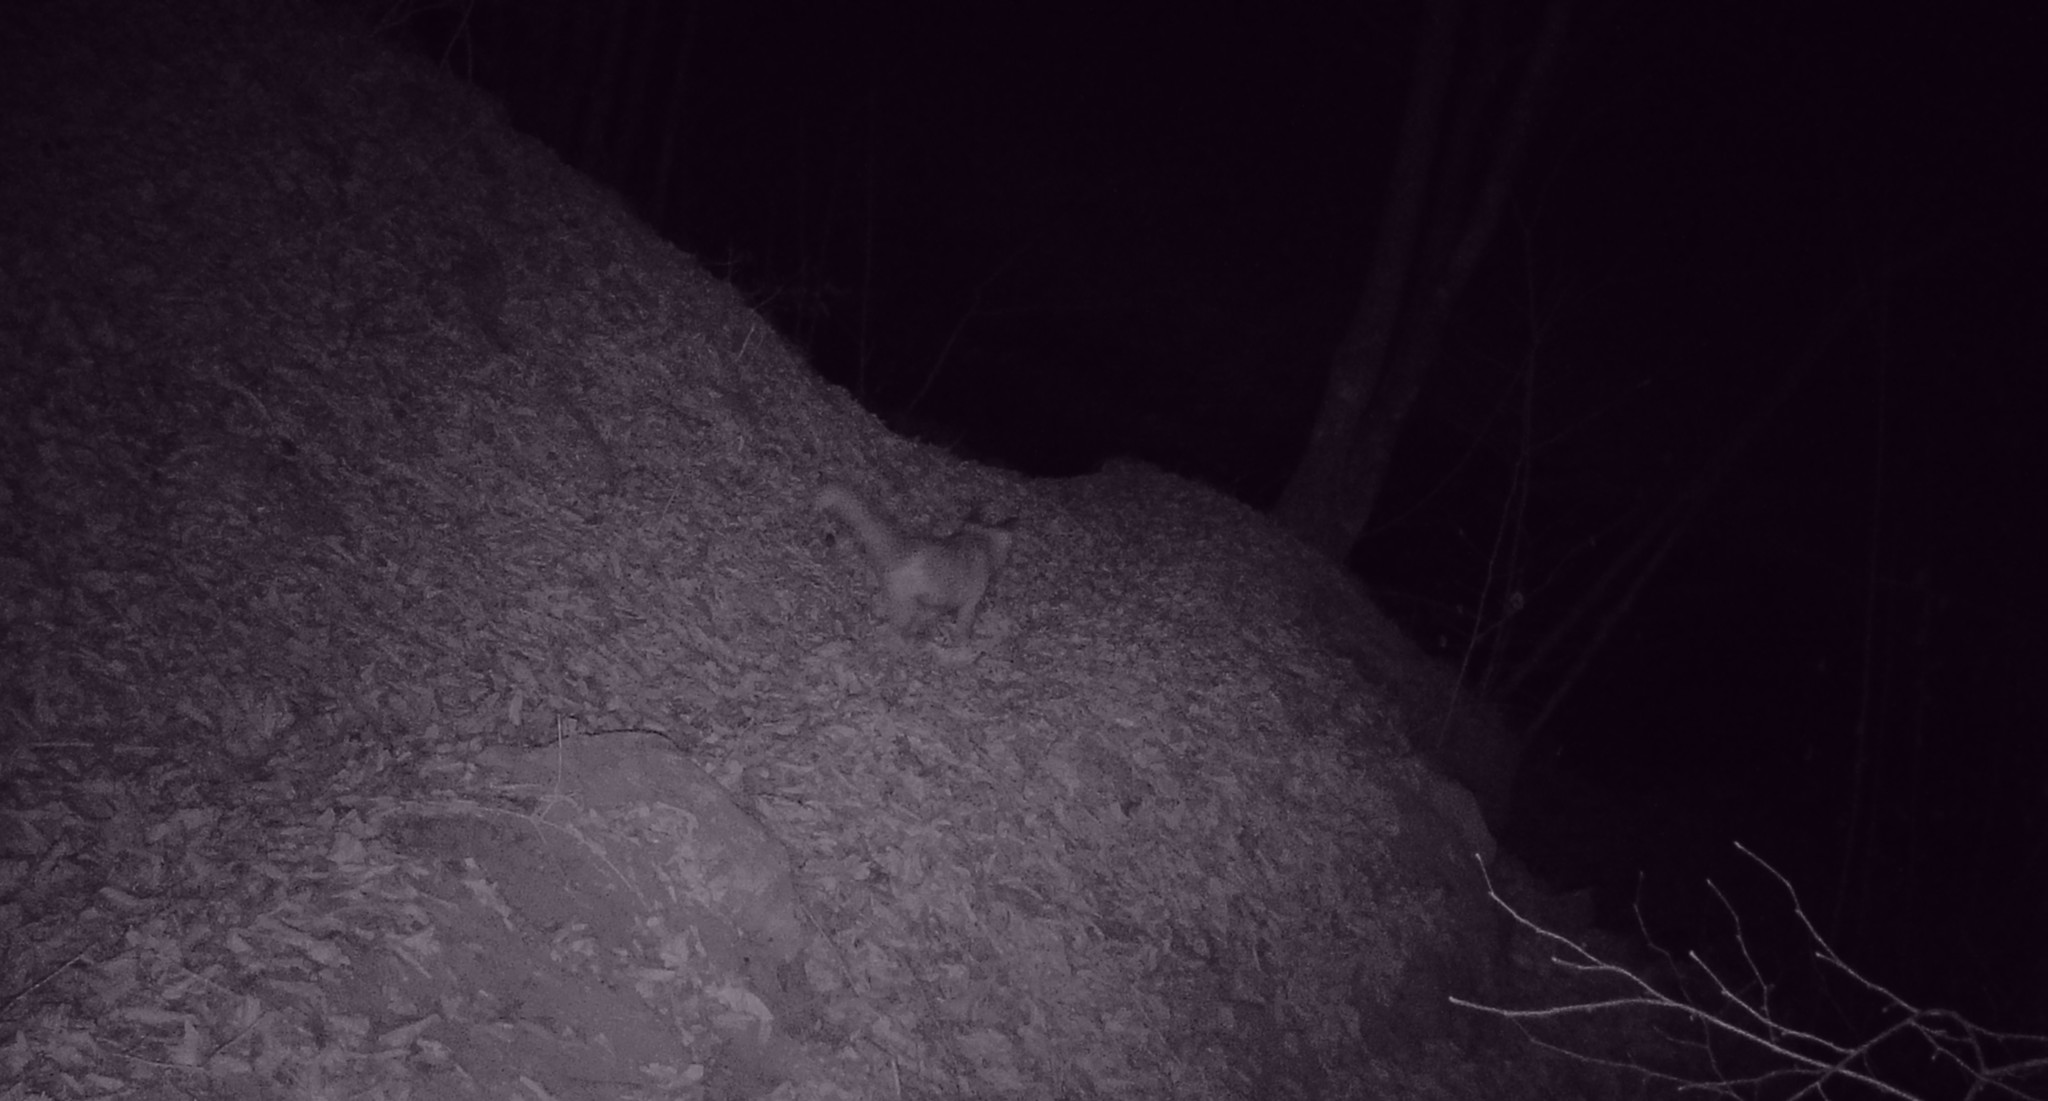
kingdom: Animalia
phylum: Chordata
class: Mammalia
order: Carnivora
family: Canidae
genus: Vulpes
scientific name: Vulpes vulpes
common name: Red fox
